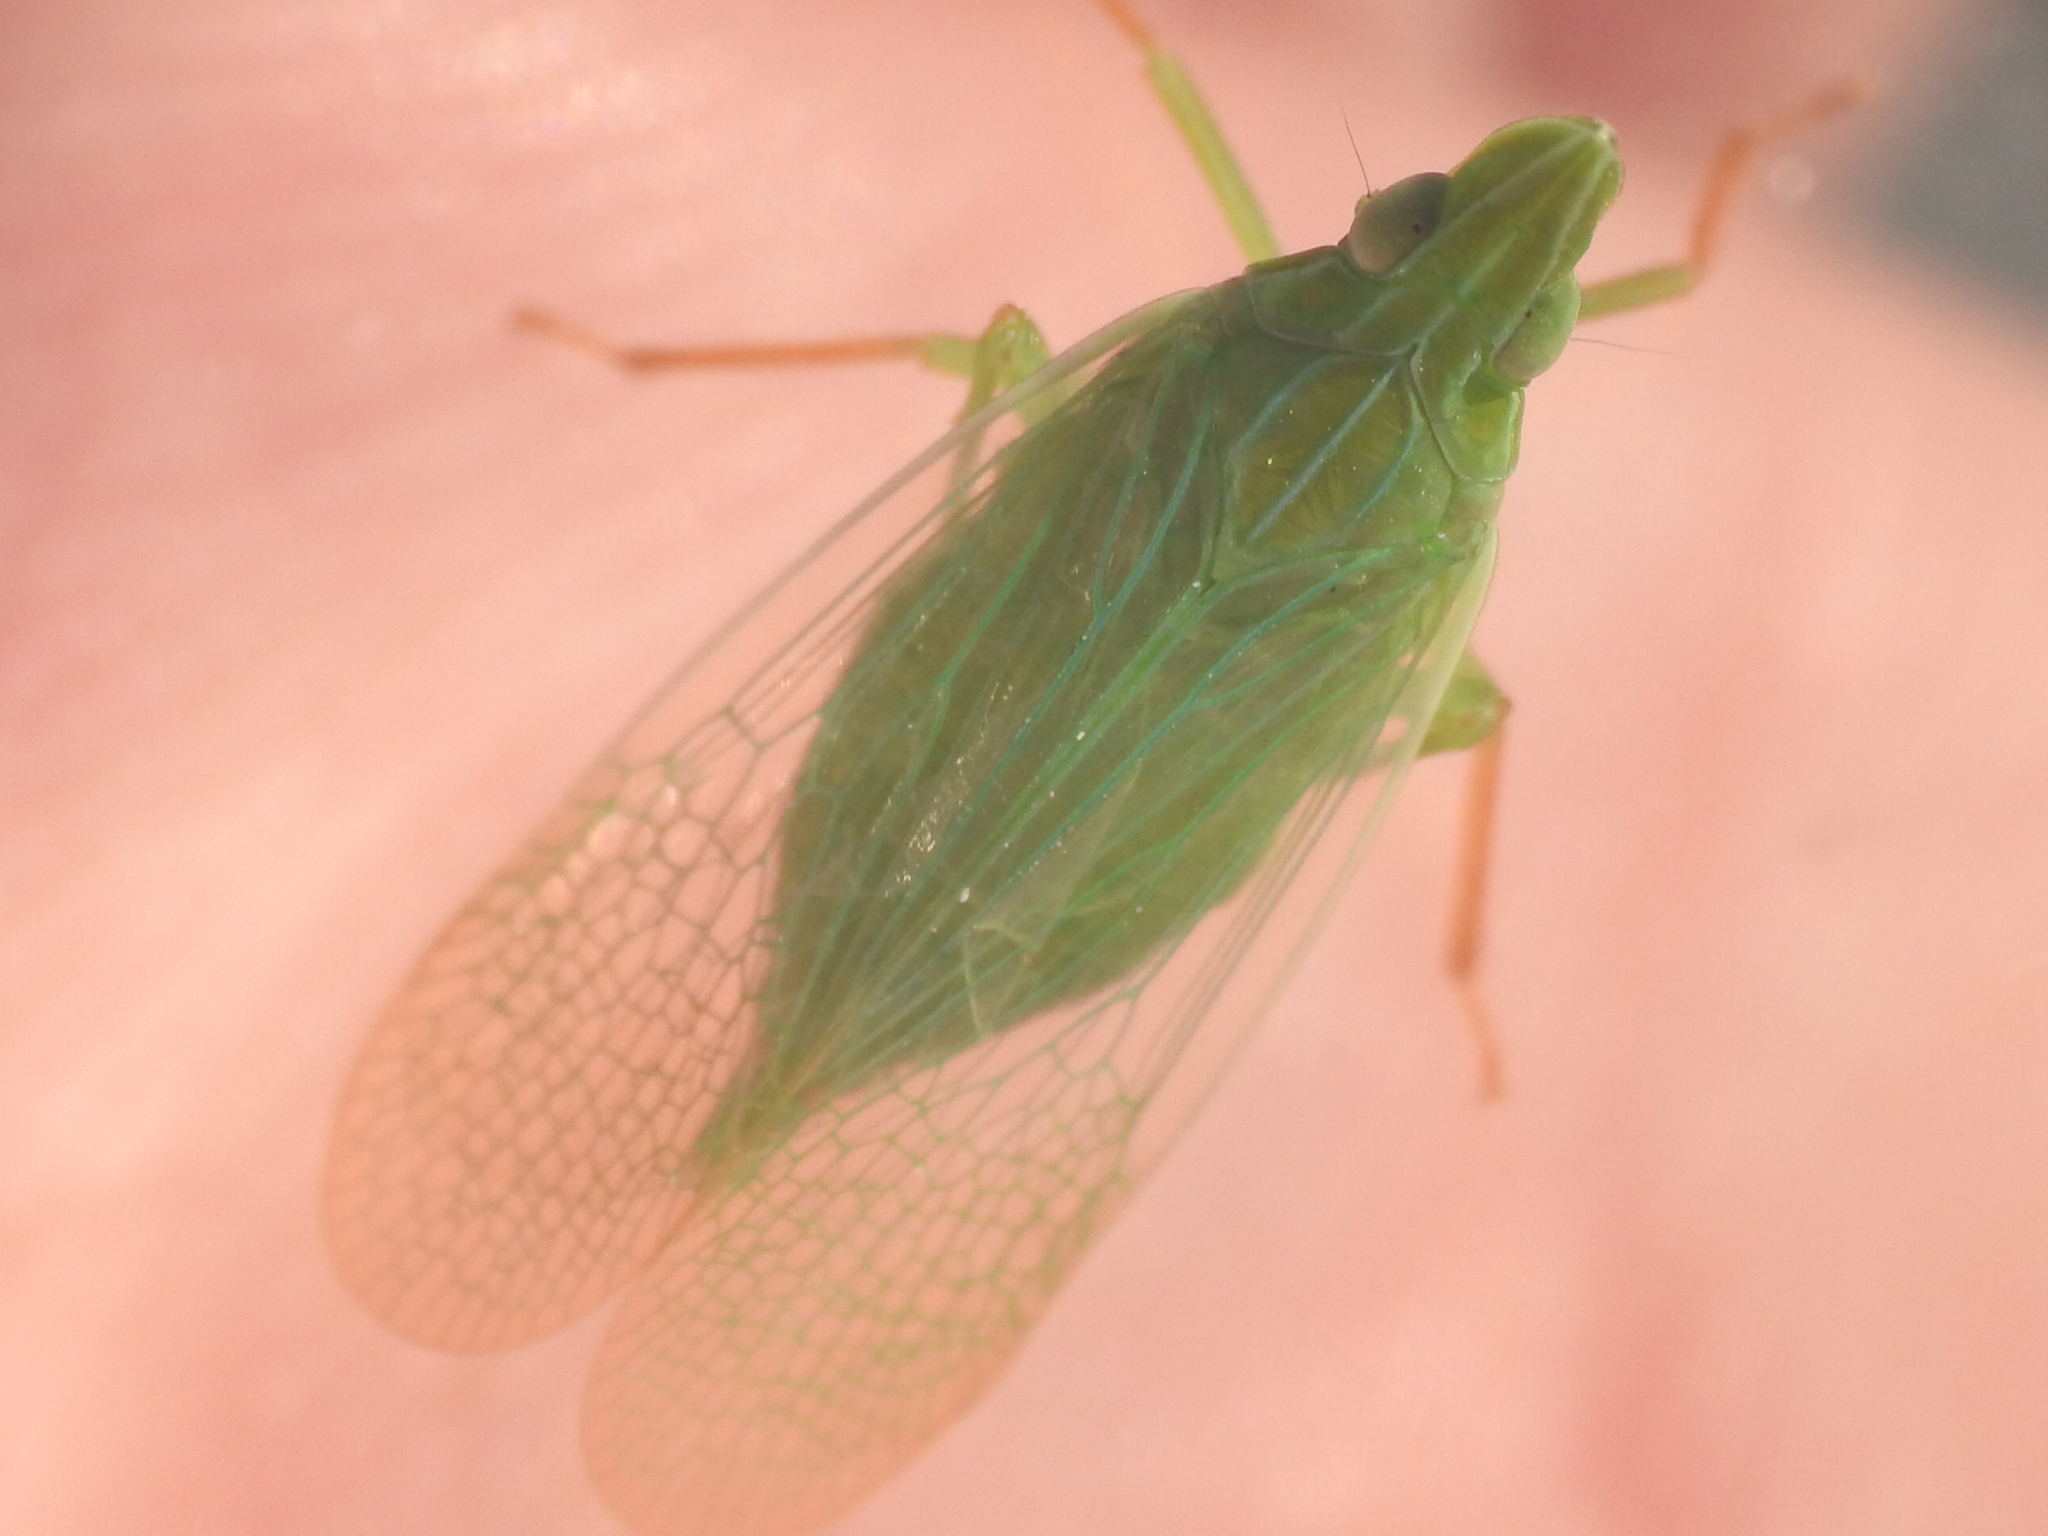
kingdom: Animalia
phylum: Arthropoda
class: Insecta
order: Hemiptera
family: Dictyopharidae
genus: Rhynchomitra
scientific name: Rhynchomitra recurva
